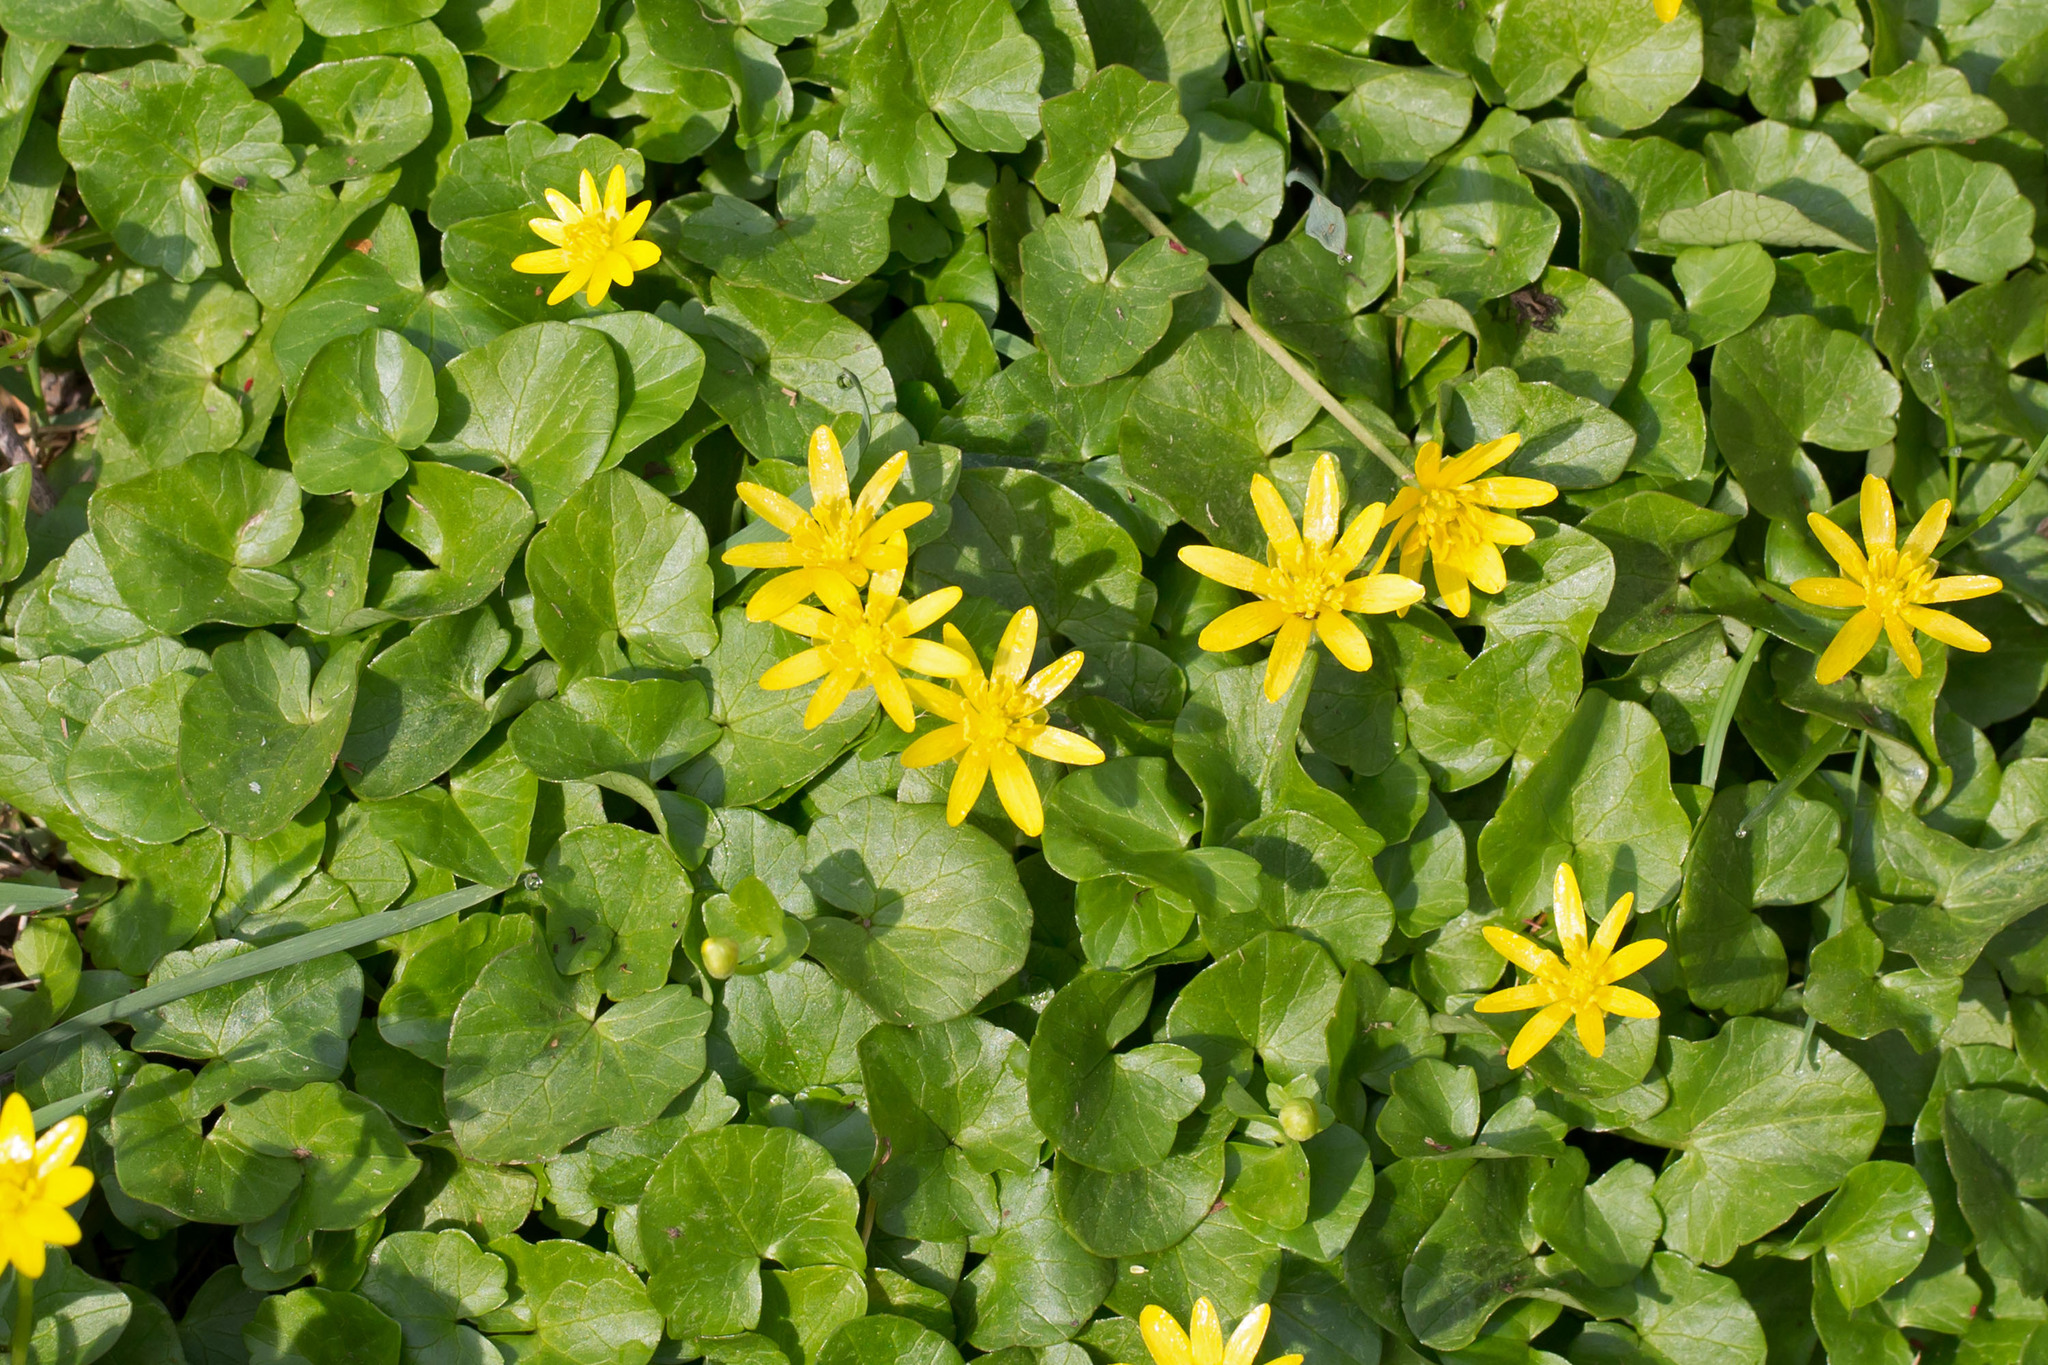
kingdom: Plantae
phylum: Tracheophyta
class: Magnoliopsida
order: Ranunculales
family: Ranunculaceae
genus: Ficaria
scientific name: Ficaria verna
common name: Lesser celandine
